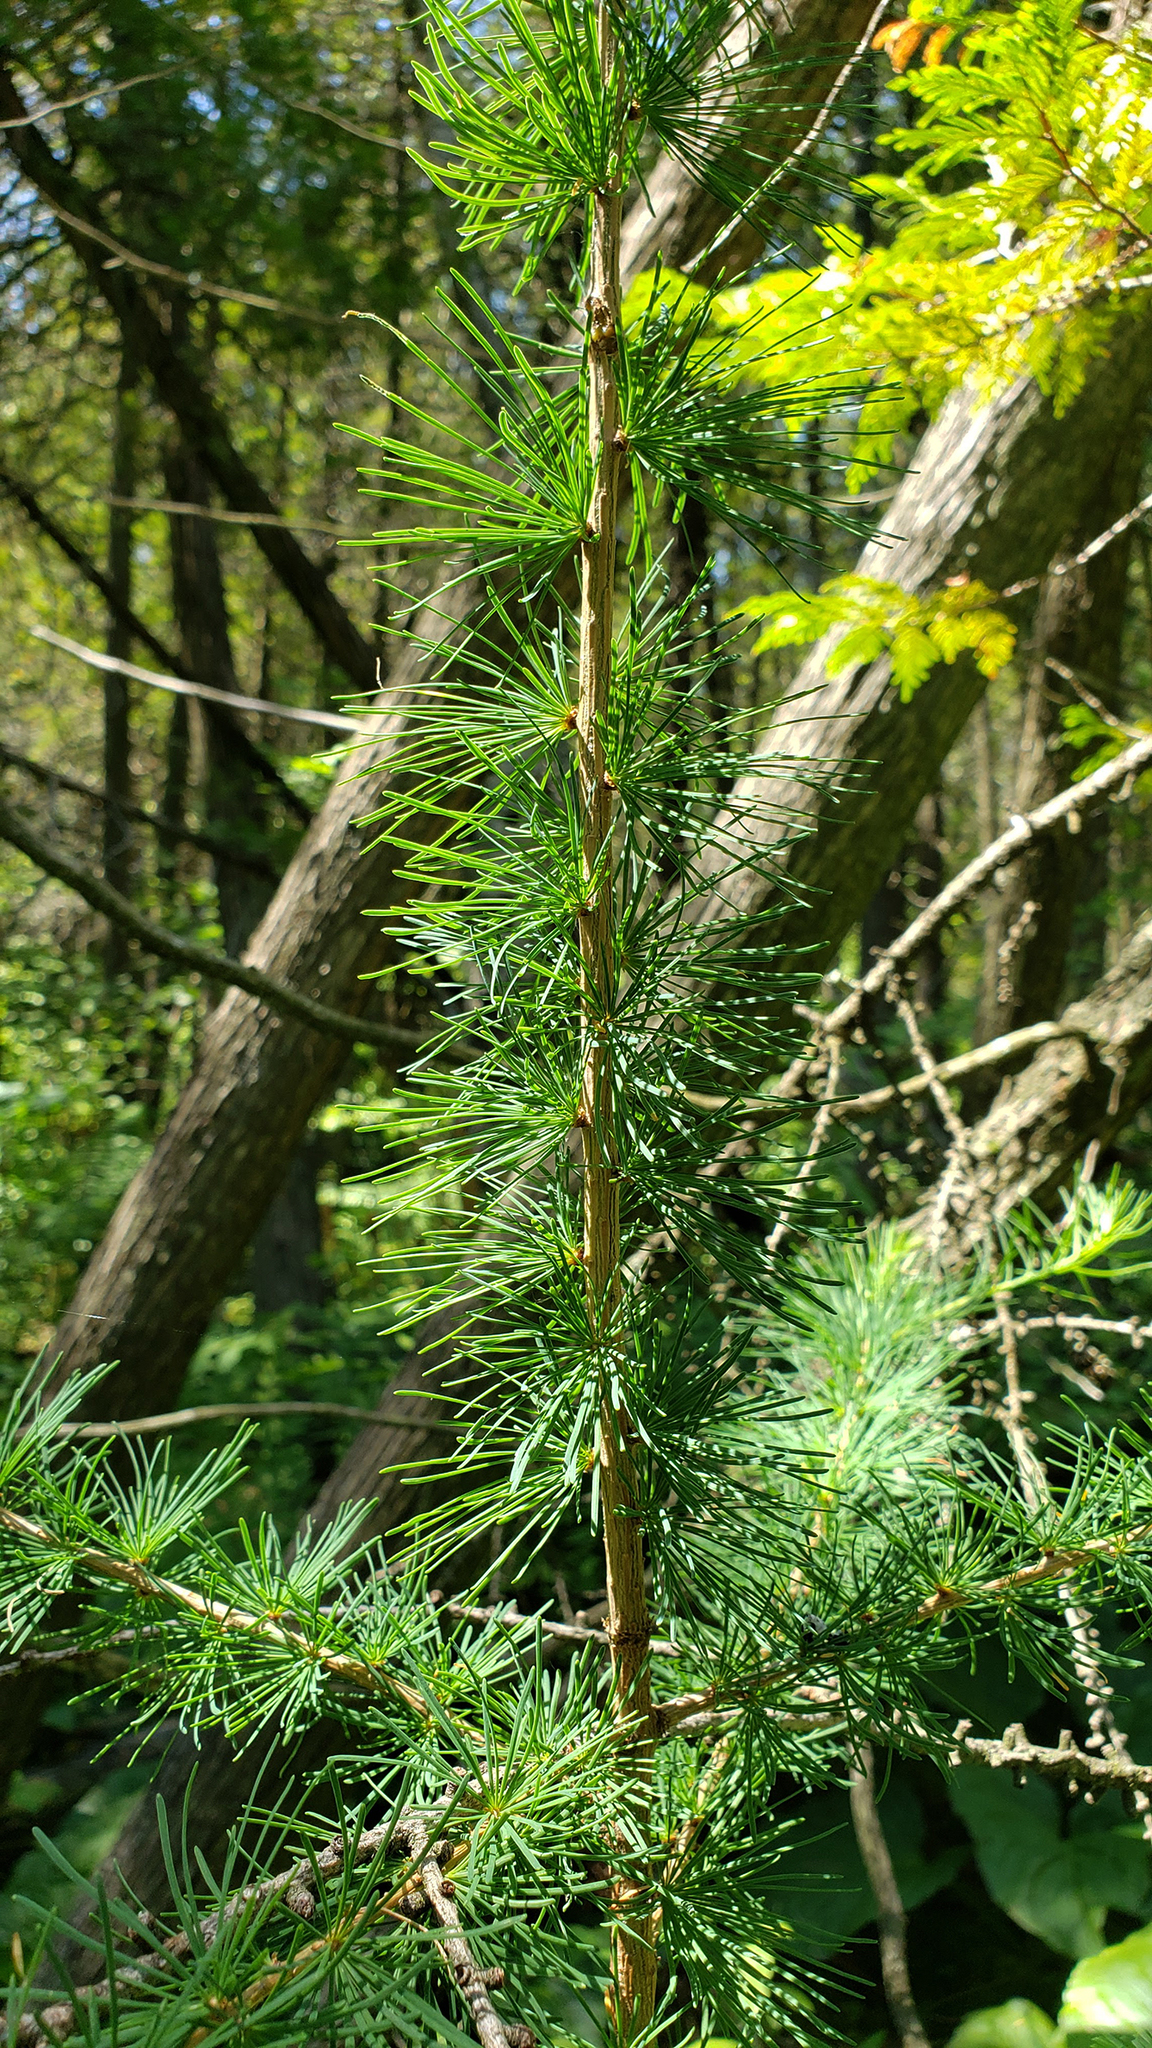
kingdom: Plantae
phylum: Tracheophyta
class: Pinopsida
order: Pinales
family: Pinaceae
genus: Larix
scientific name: Larix laricina
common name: American larch
